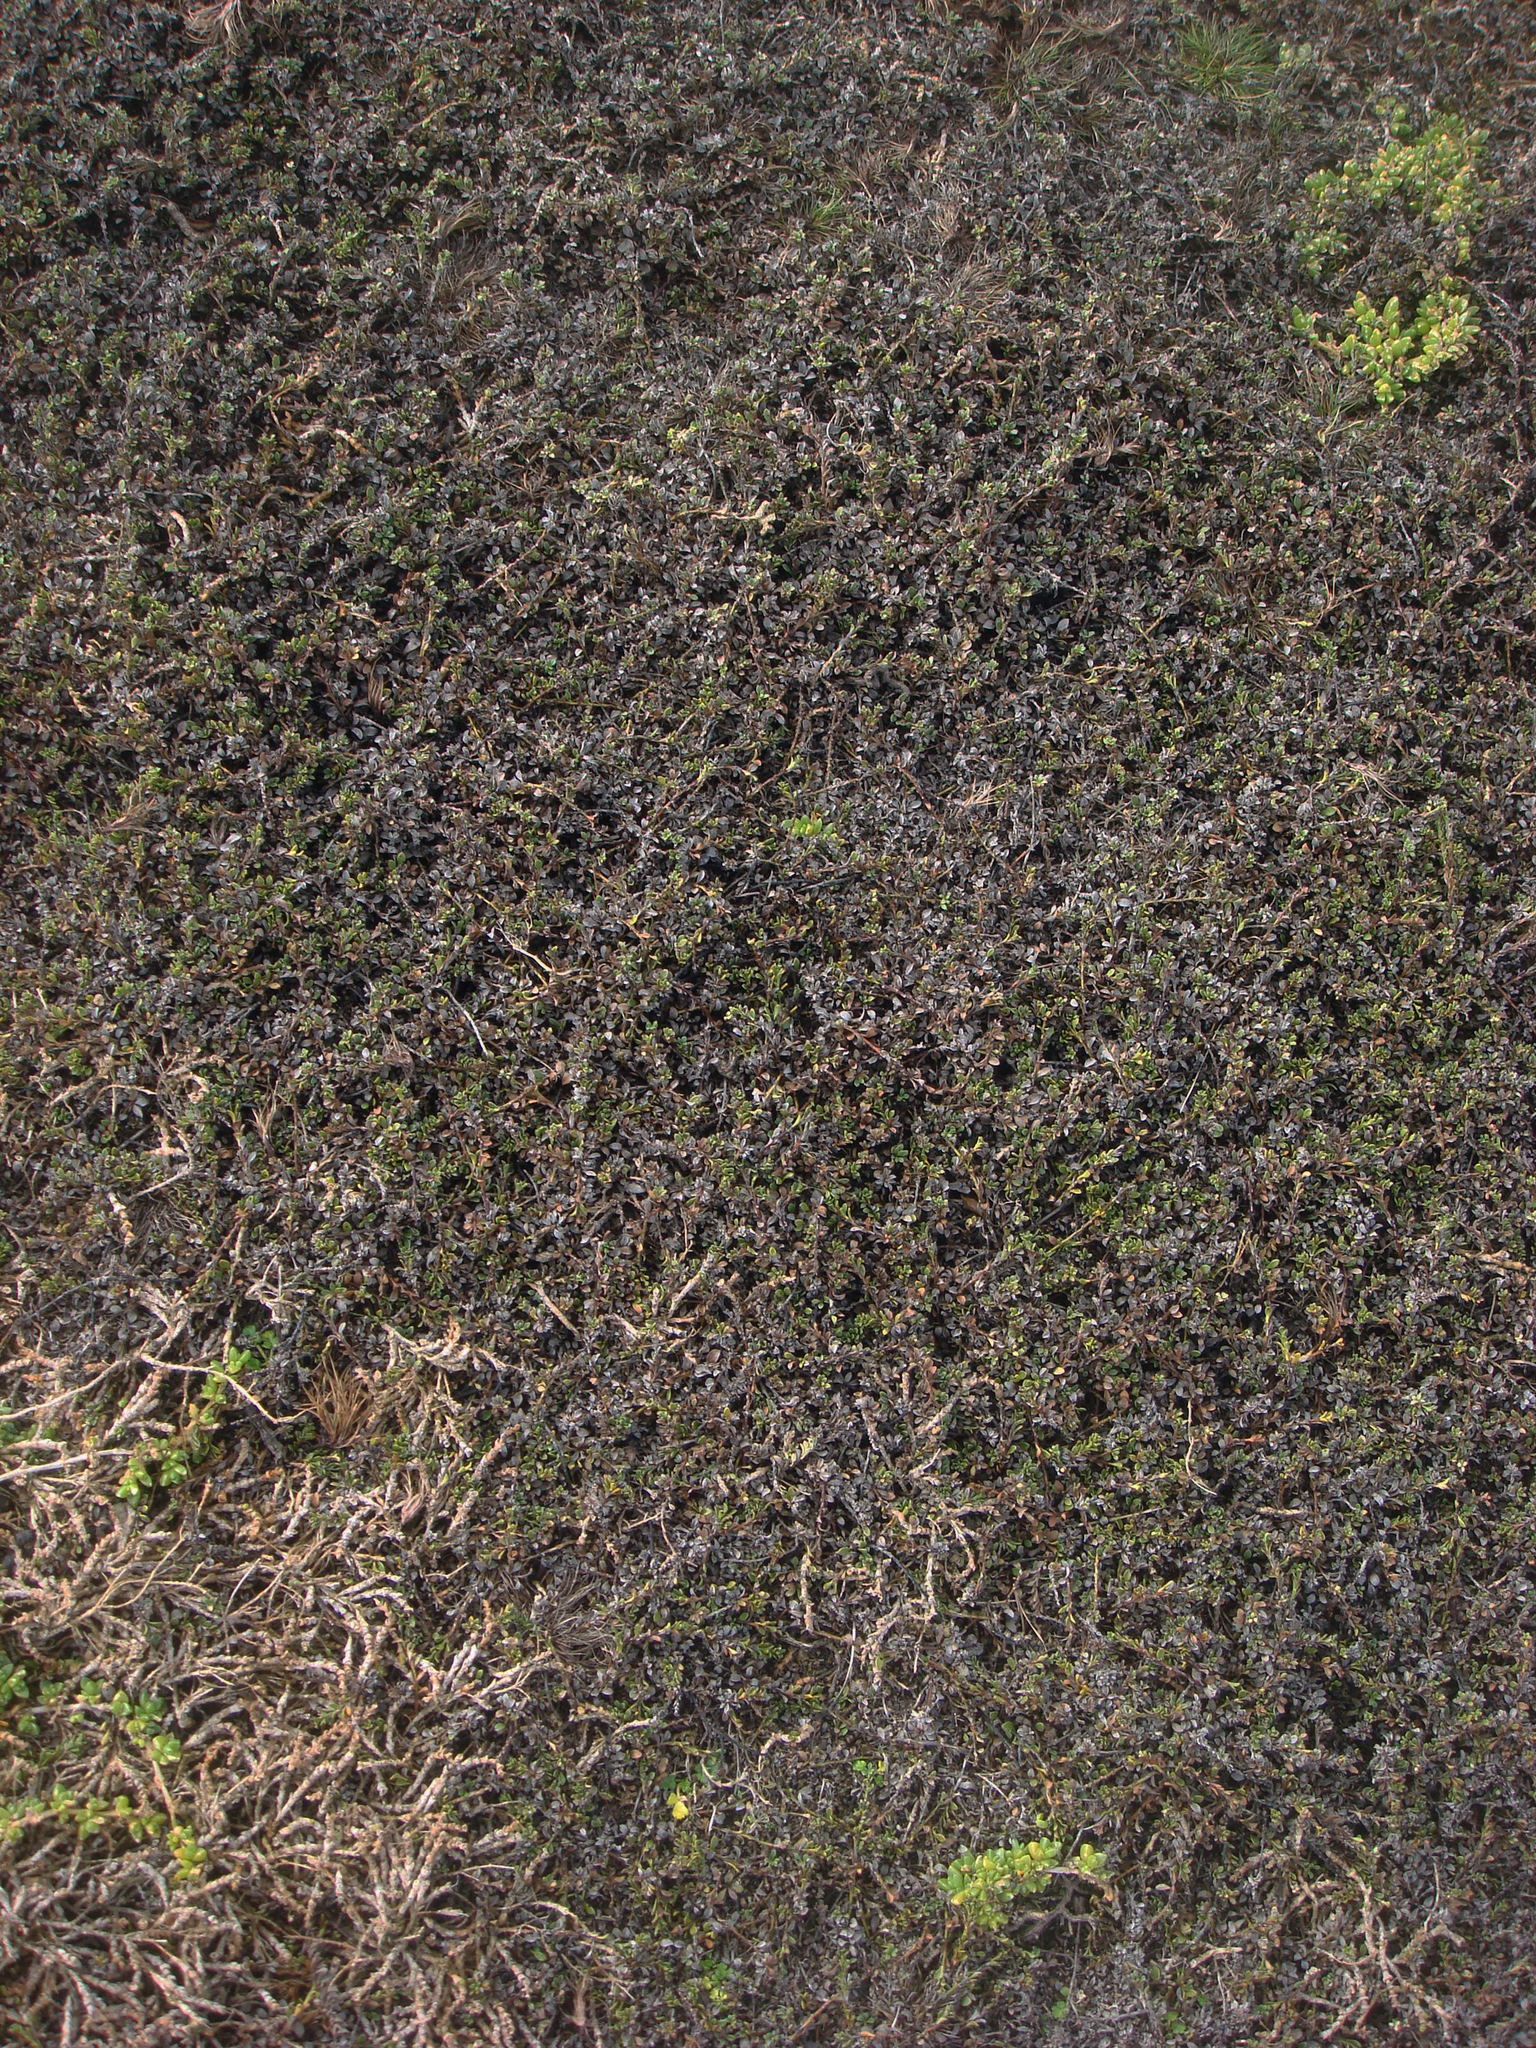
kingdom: Plantae
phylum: Tracheophyta
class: Magnoliopsida
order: Ericales
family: Primulaceae
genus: Samolus
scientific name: Samolus repens
